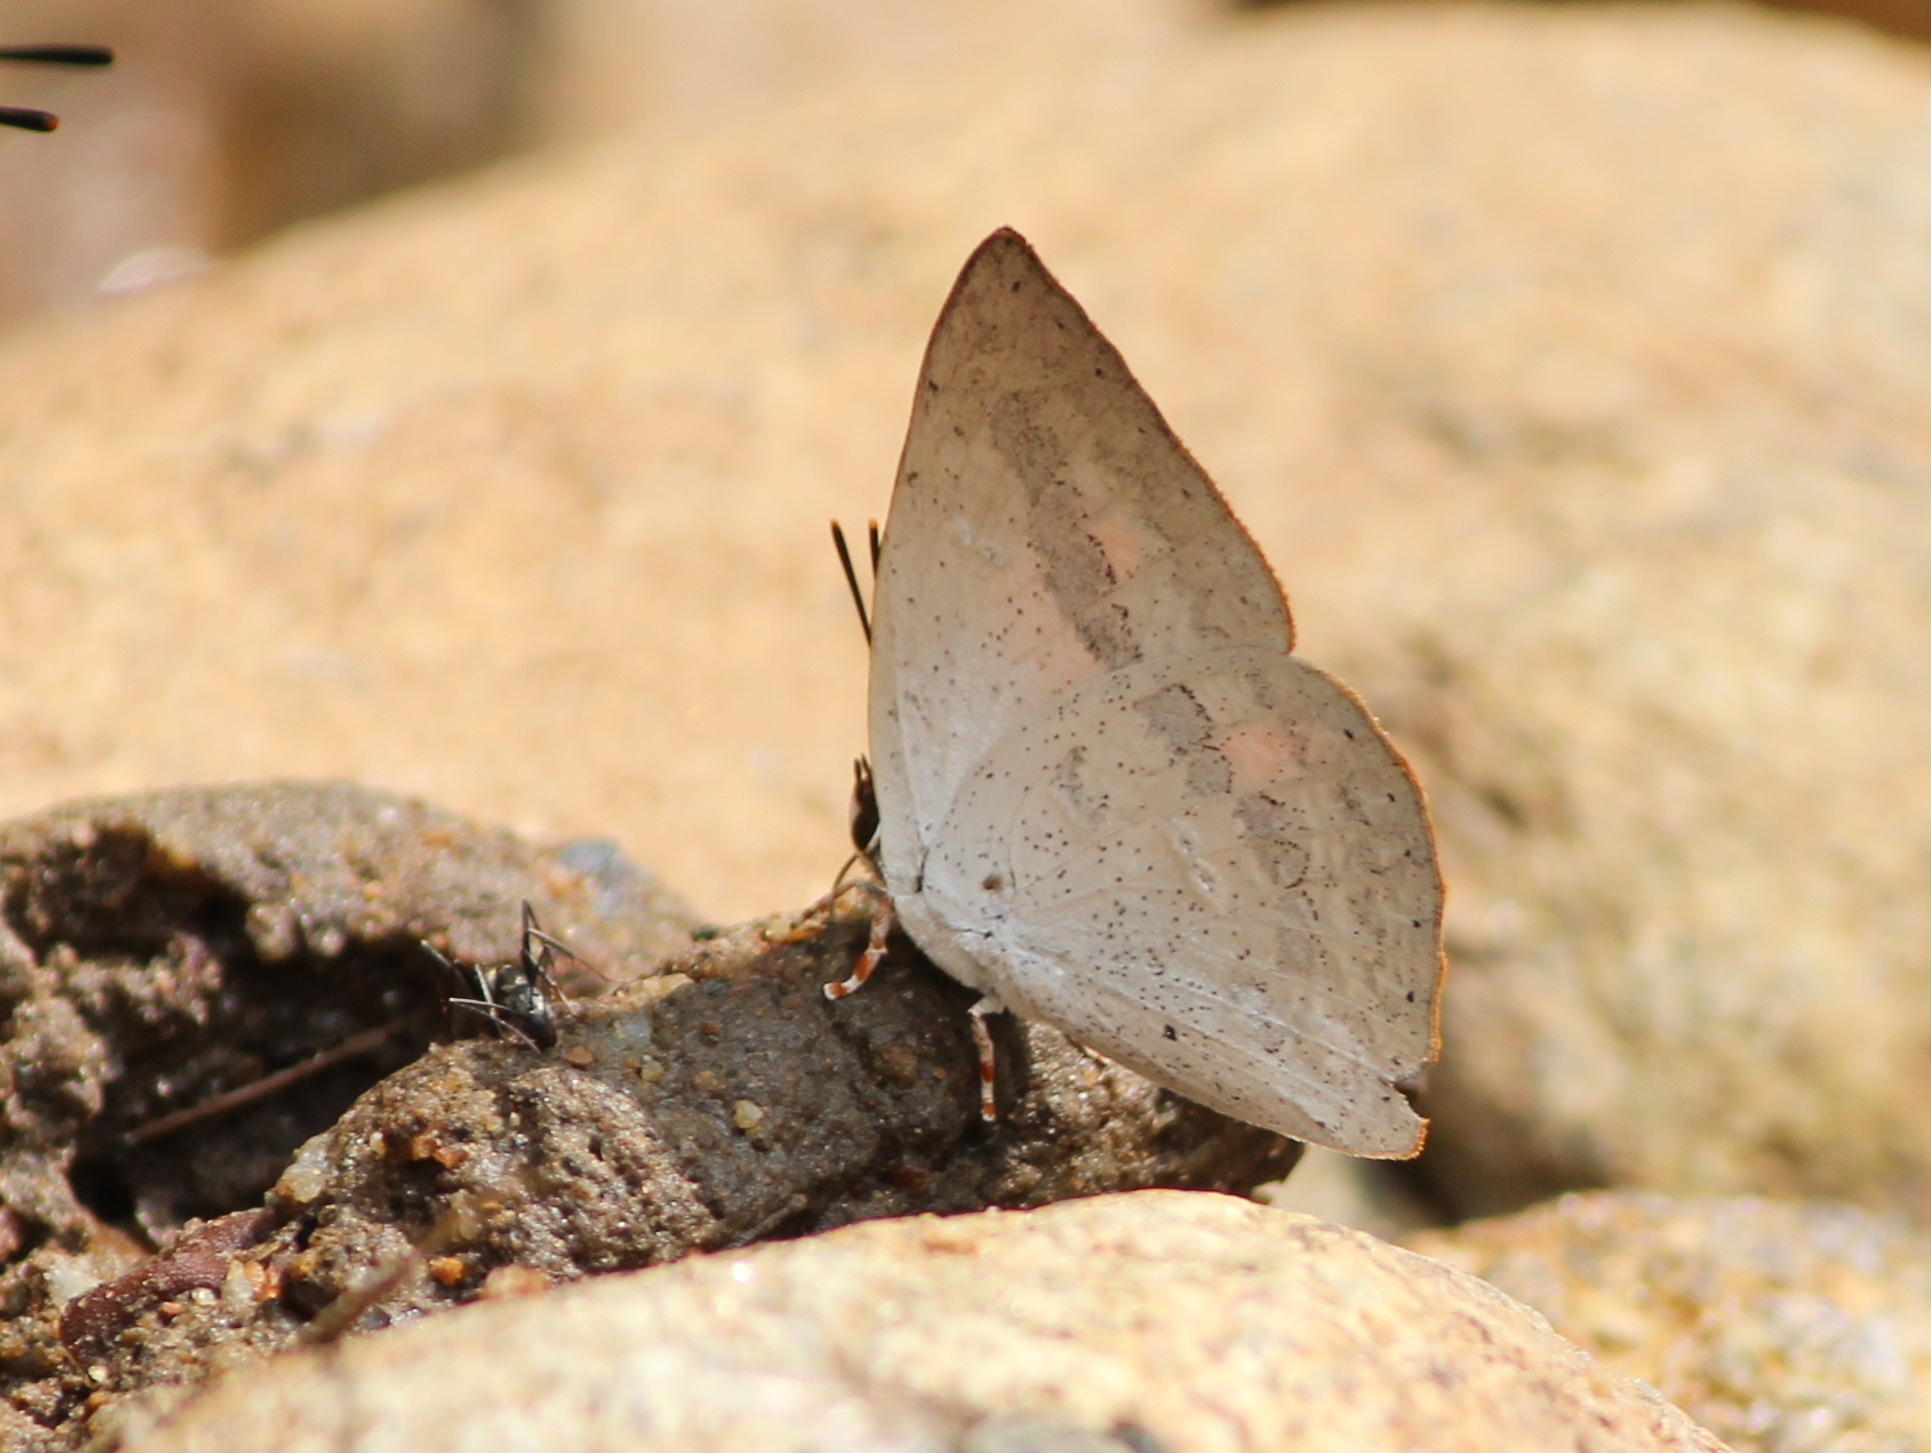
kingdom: Animalia
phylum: Arthropoda
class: Insecta
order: Lepidoptera
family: Lycaenidae
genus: Curetis
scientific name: Curetis siva
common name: Shiva sunbeam
